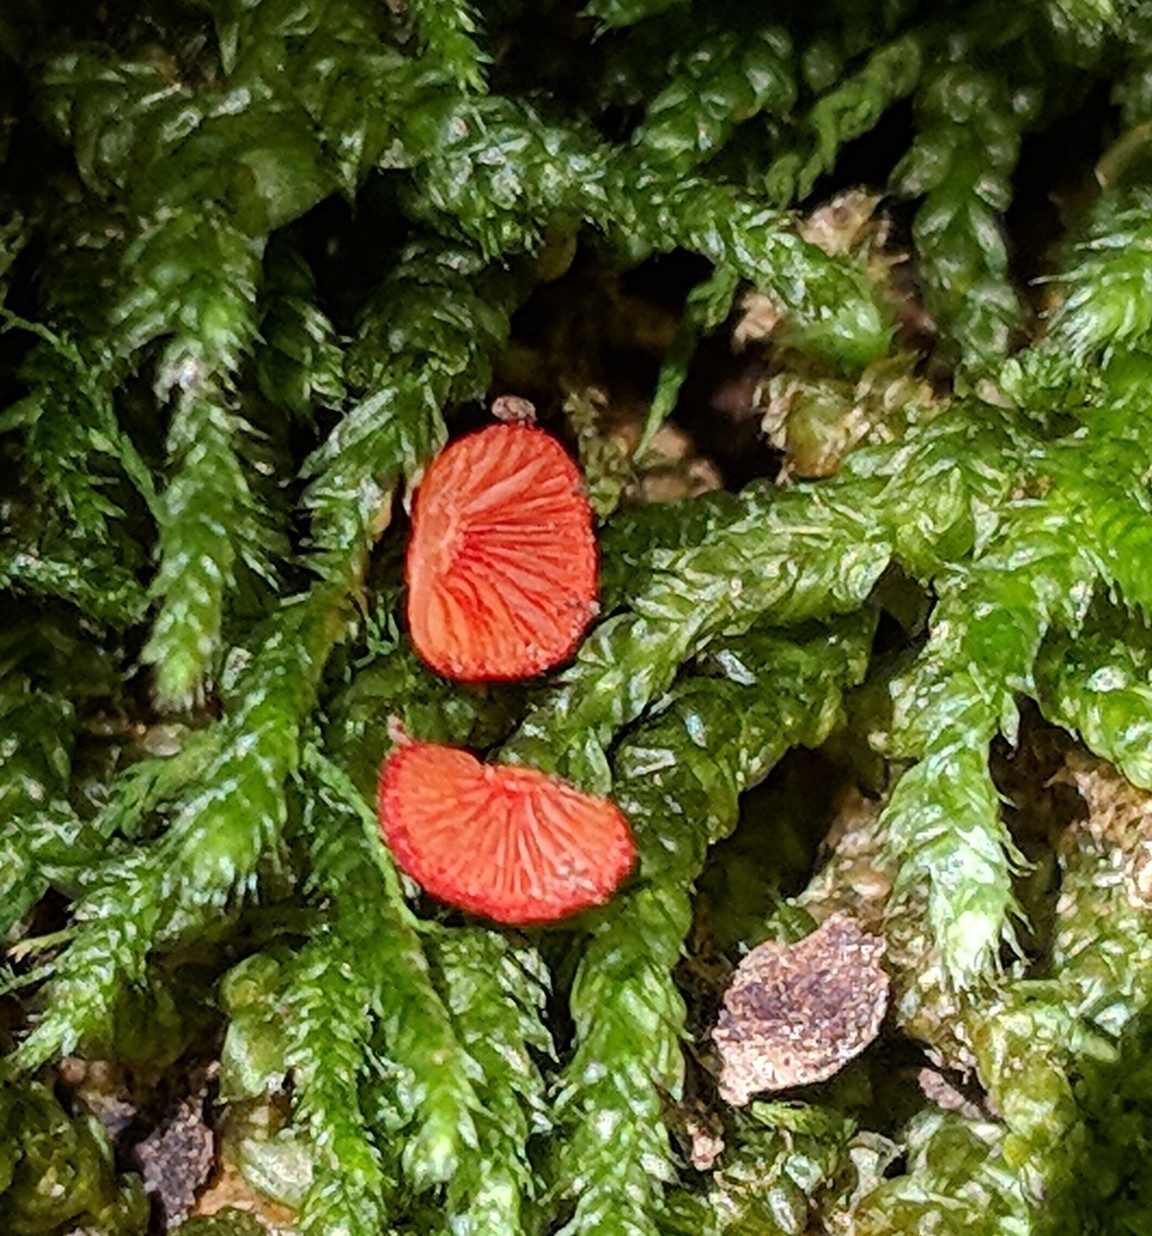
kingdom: Fungi
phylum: Basidiomycota
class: Agaricomycetes
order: Agaricales
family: Crepidotaceae
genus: Crepidotus
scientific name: Crepidotus cinnabarinus
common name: Cinnabar oysterling
